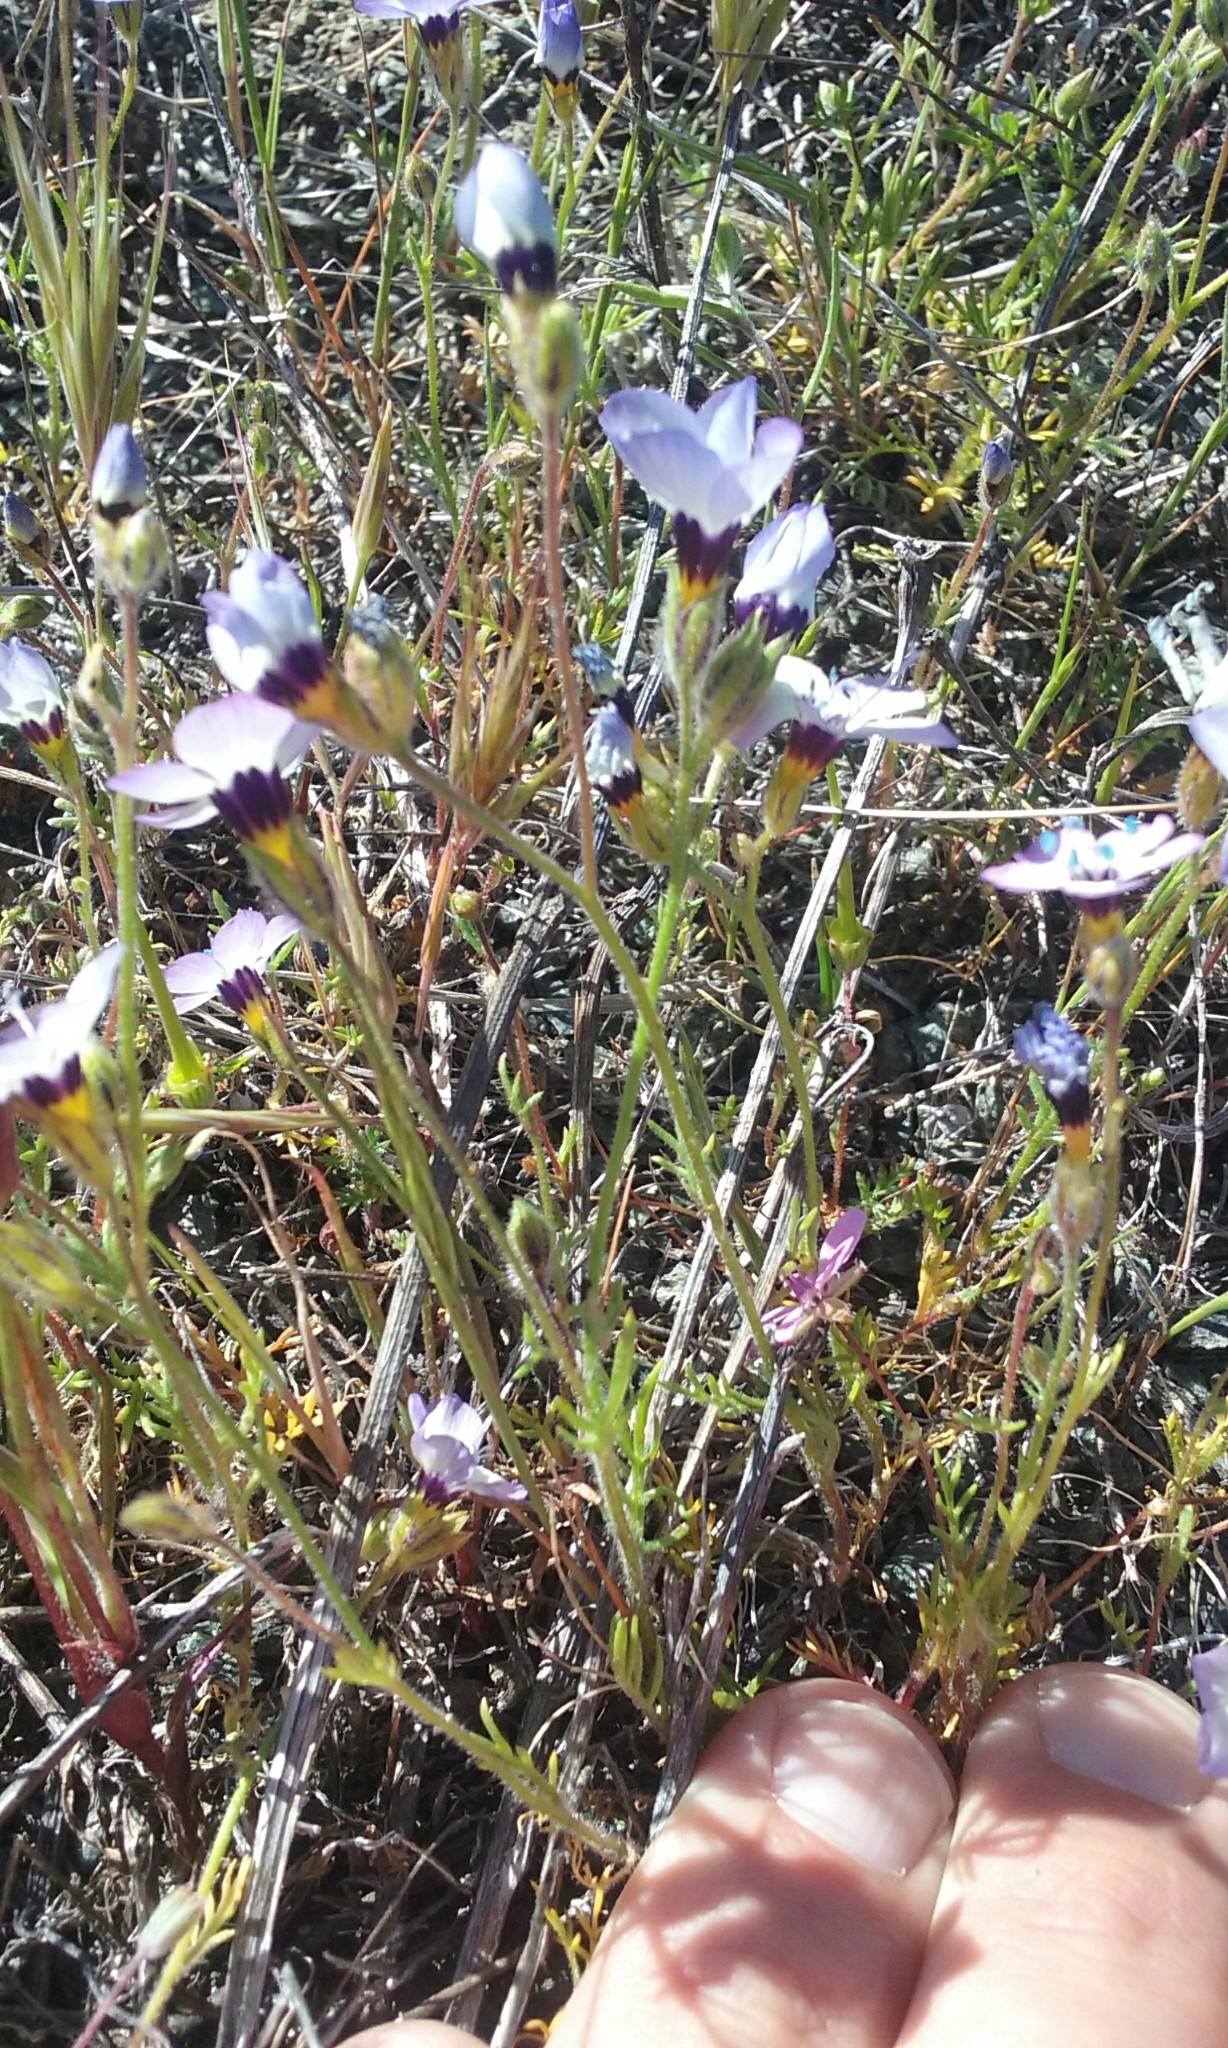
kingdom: Plantae
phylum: Tracheophyta
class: Magnoliopsida
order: Ericales
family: Polemoniaceae
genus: Gilia
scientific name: Gilia tricolor
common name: Bird's-eyes
